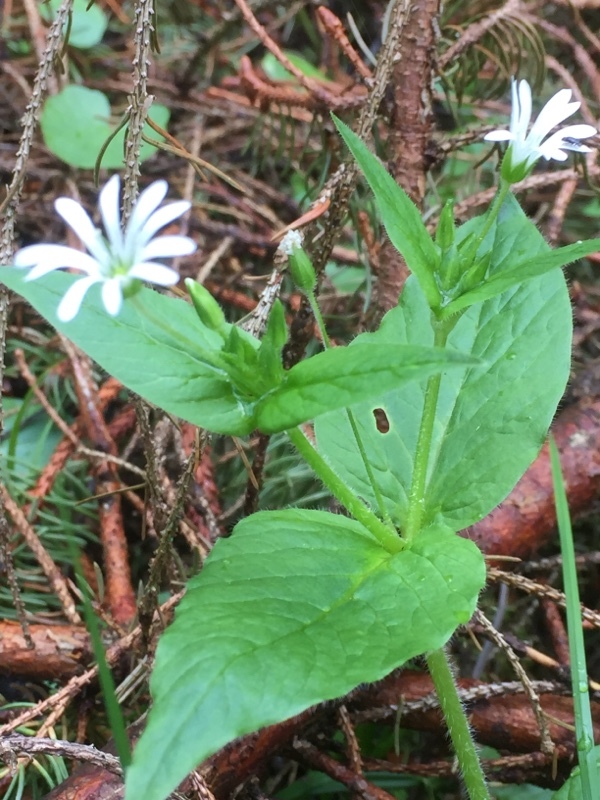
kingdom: Plantae
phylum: Tracheophyta
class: Magnoliopsida
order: Caryophyllales
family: Caryophyllaceae
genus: Stellaria
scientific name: Stellaria nemorum
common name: Wood stitchwort
